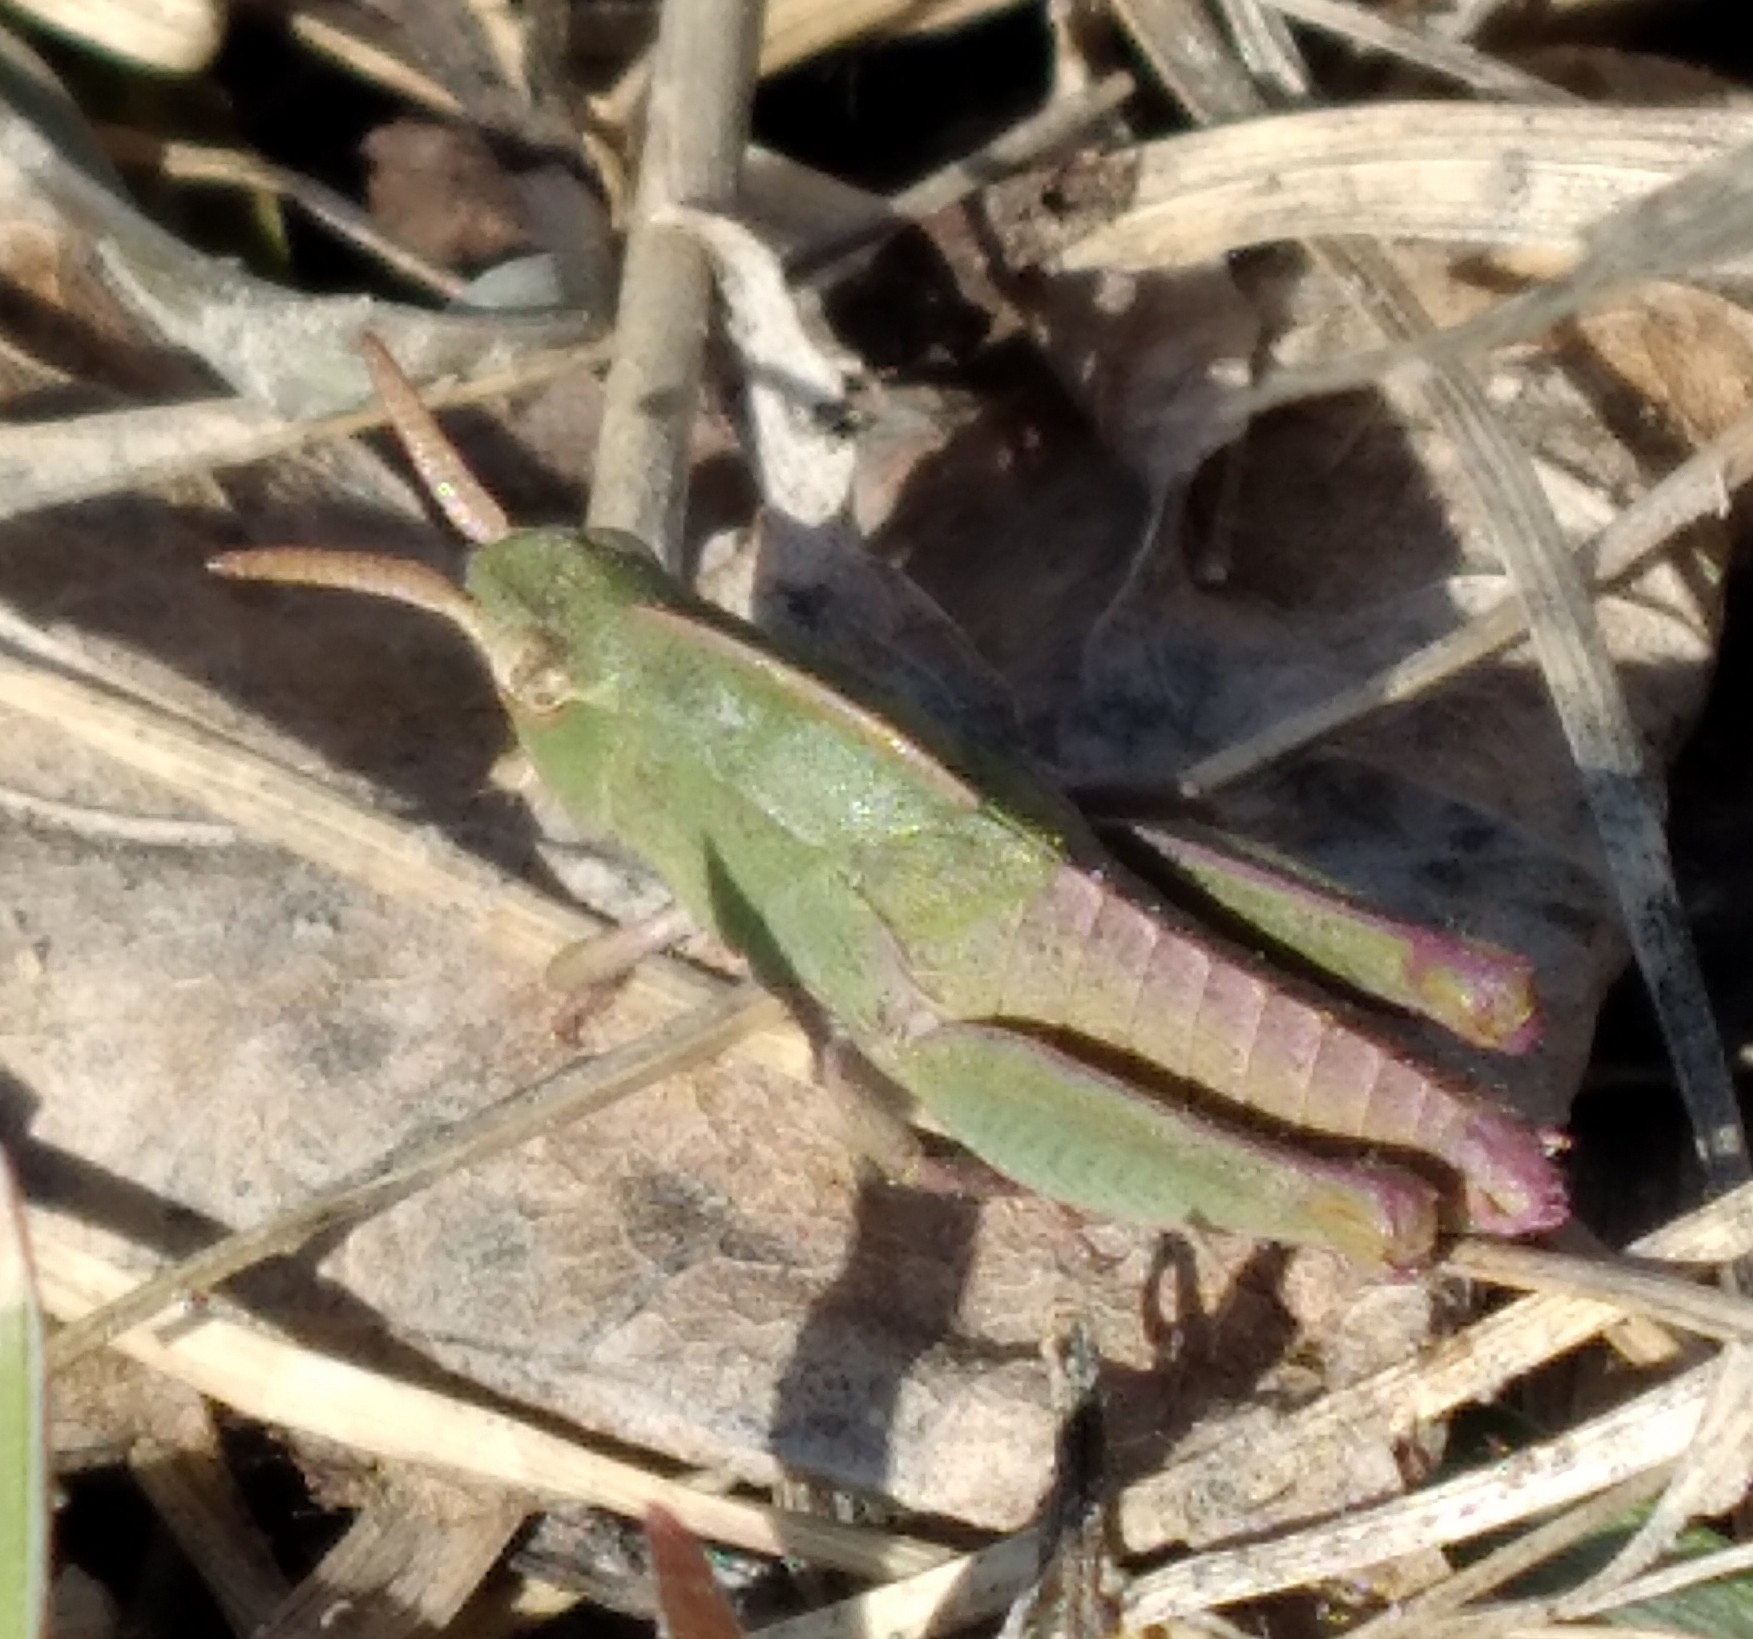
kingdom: Animalia
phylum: Arthropoda
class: Insecta
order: Orthoptera
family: Acrididae
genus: Chortophaga
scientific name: Chortophaga viridifasciata
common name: Green-striped grasshopper
